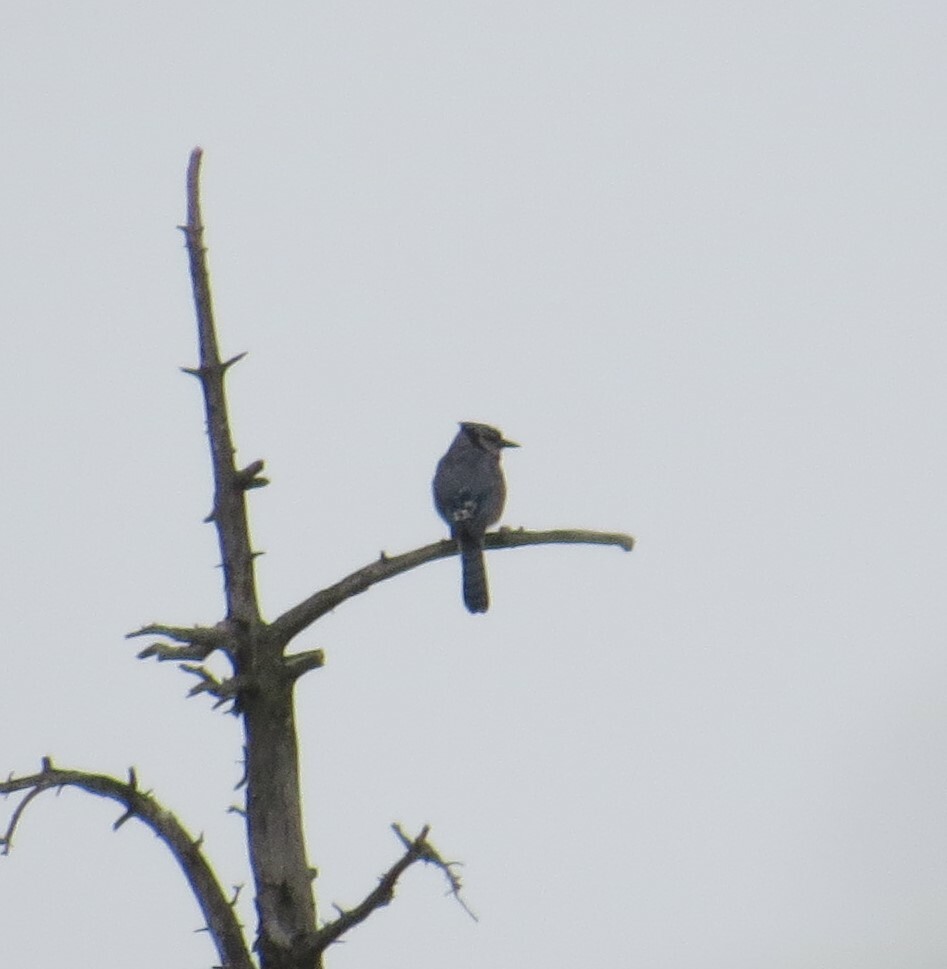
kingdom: Animalia
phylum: Chordata
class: Aves
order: Passeriformes
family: Corvidae
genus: Cyanocitta
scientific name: Cyanocitta cristata
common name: Blue jay
